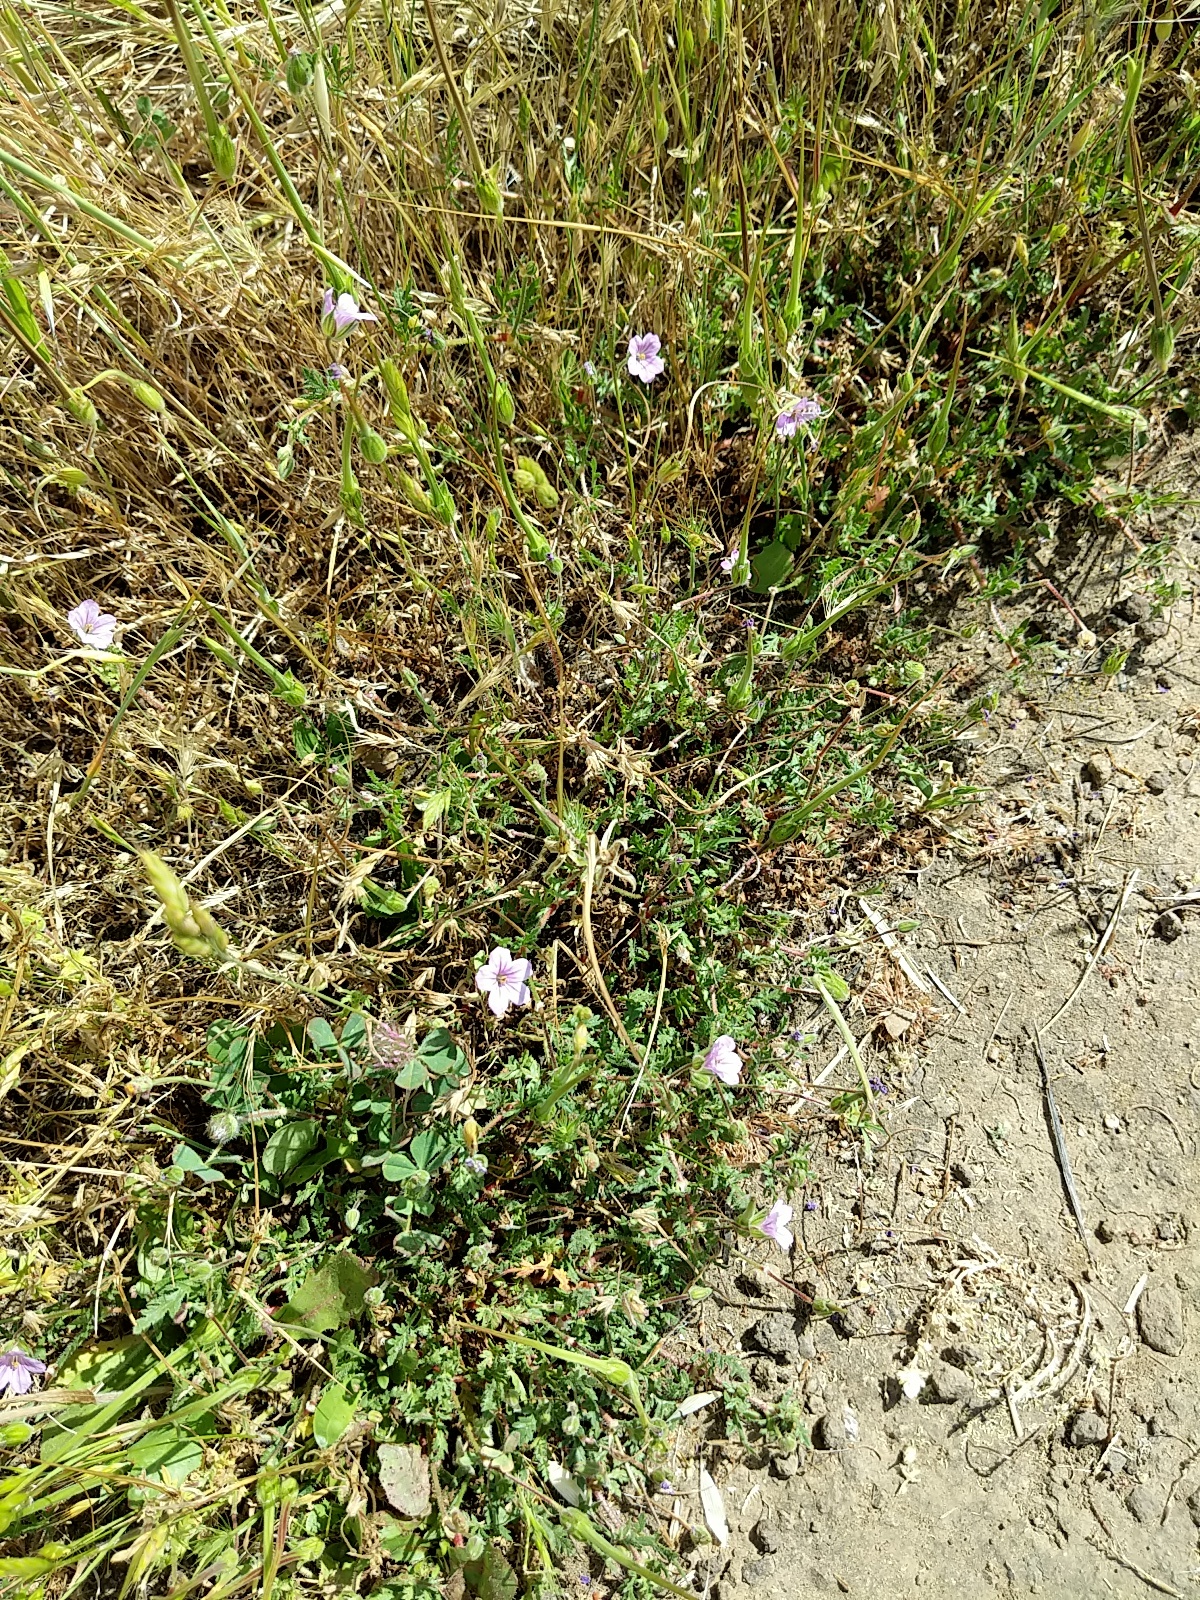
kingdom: Plantae
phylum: Tracheophyta
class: Magnoliopsida
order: Geraniales
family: Geraniaceae
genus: Erodium
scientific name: Erodium botrys
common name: Mediterranean stork's-bill
